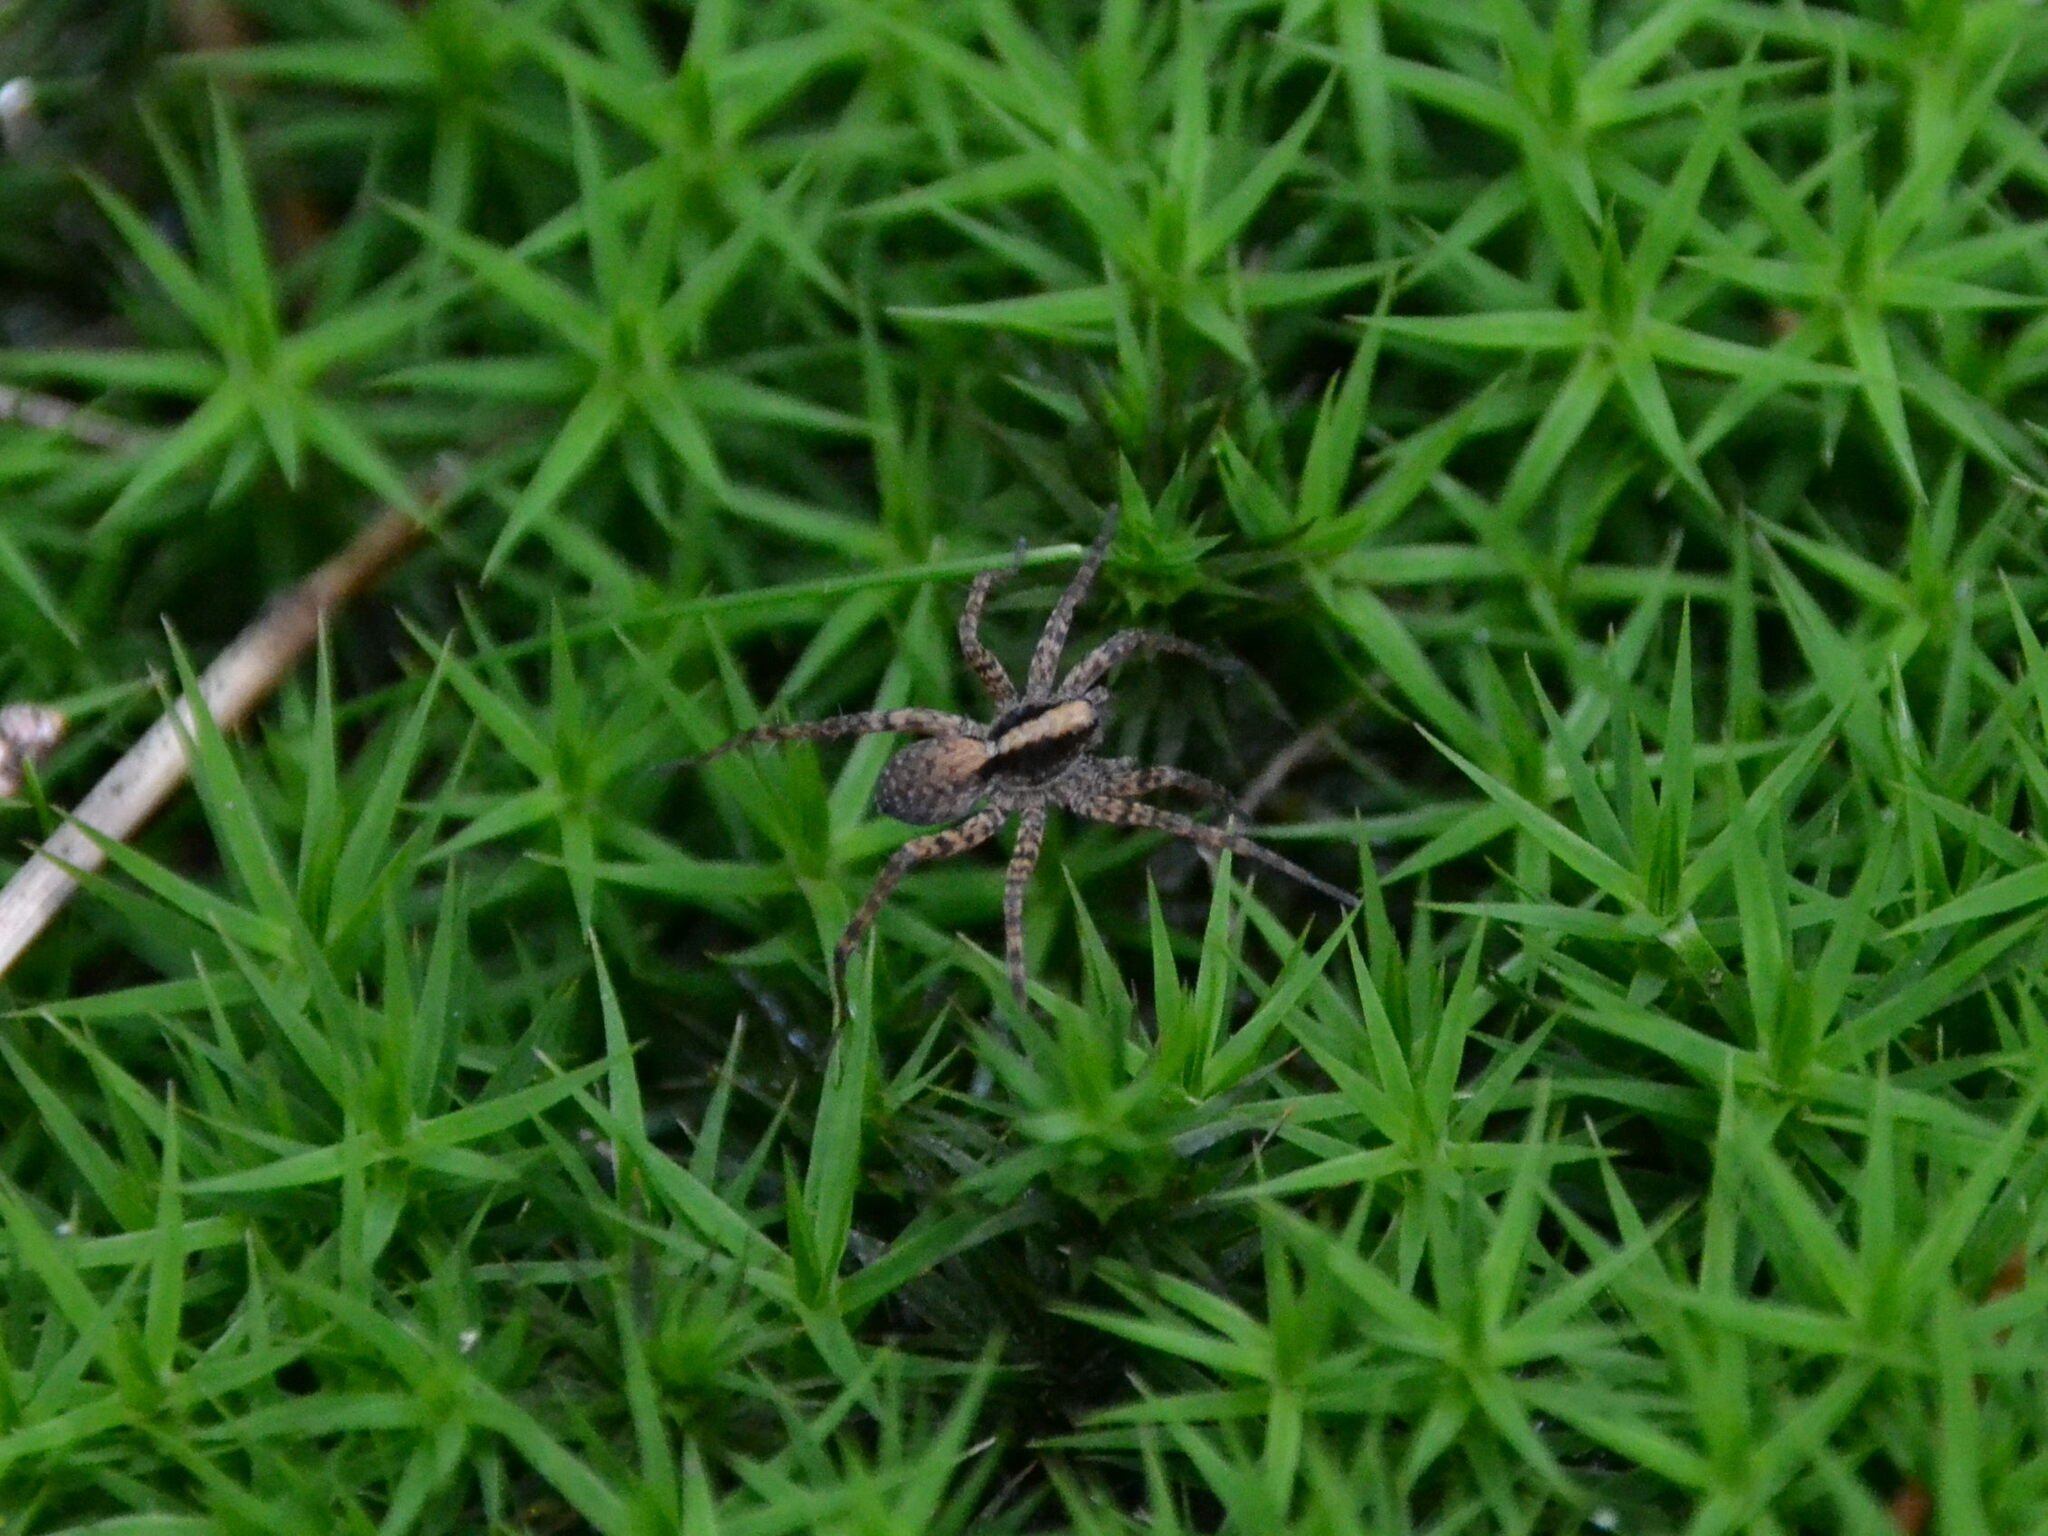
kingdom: Animalia
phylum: Arthropoda
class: Arachnida
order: Araneae
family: Lycosidae
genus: Pardosa
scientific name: Pardosa
